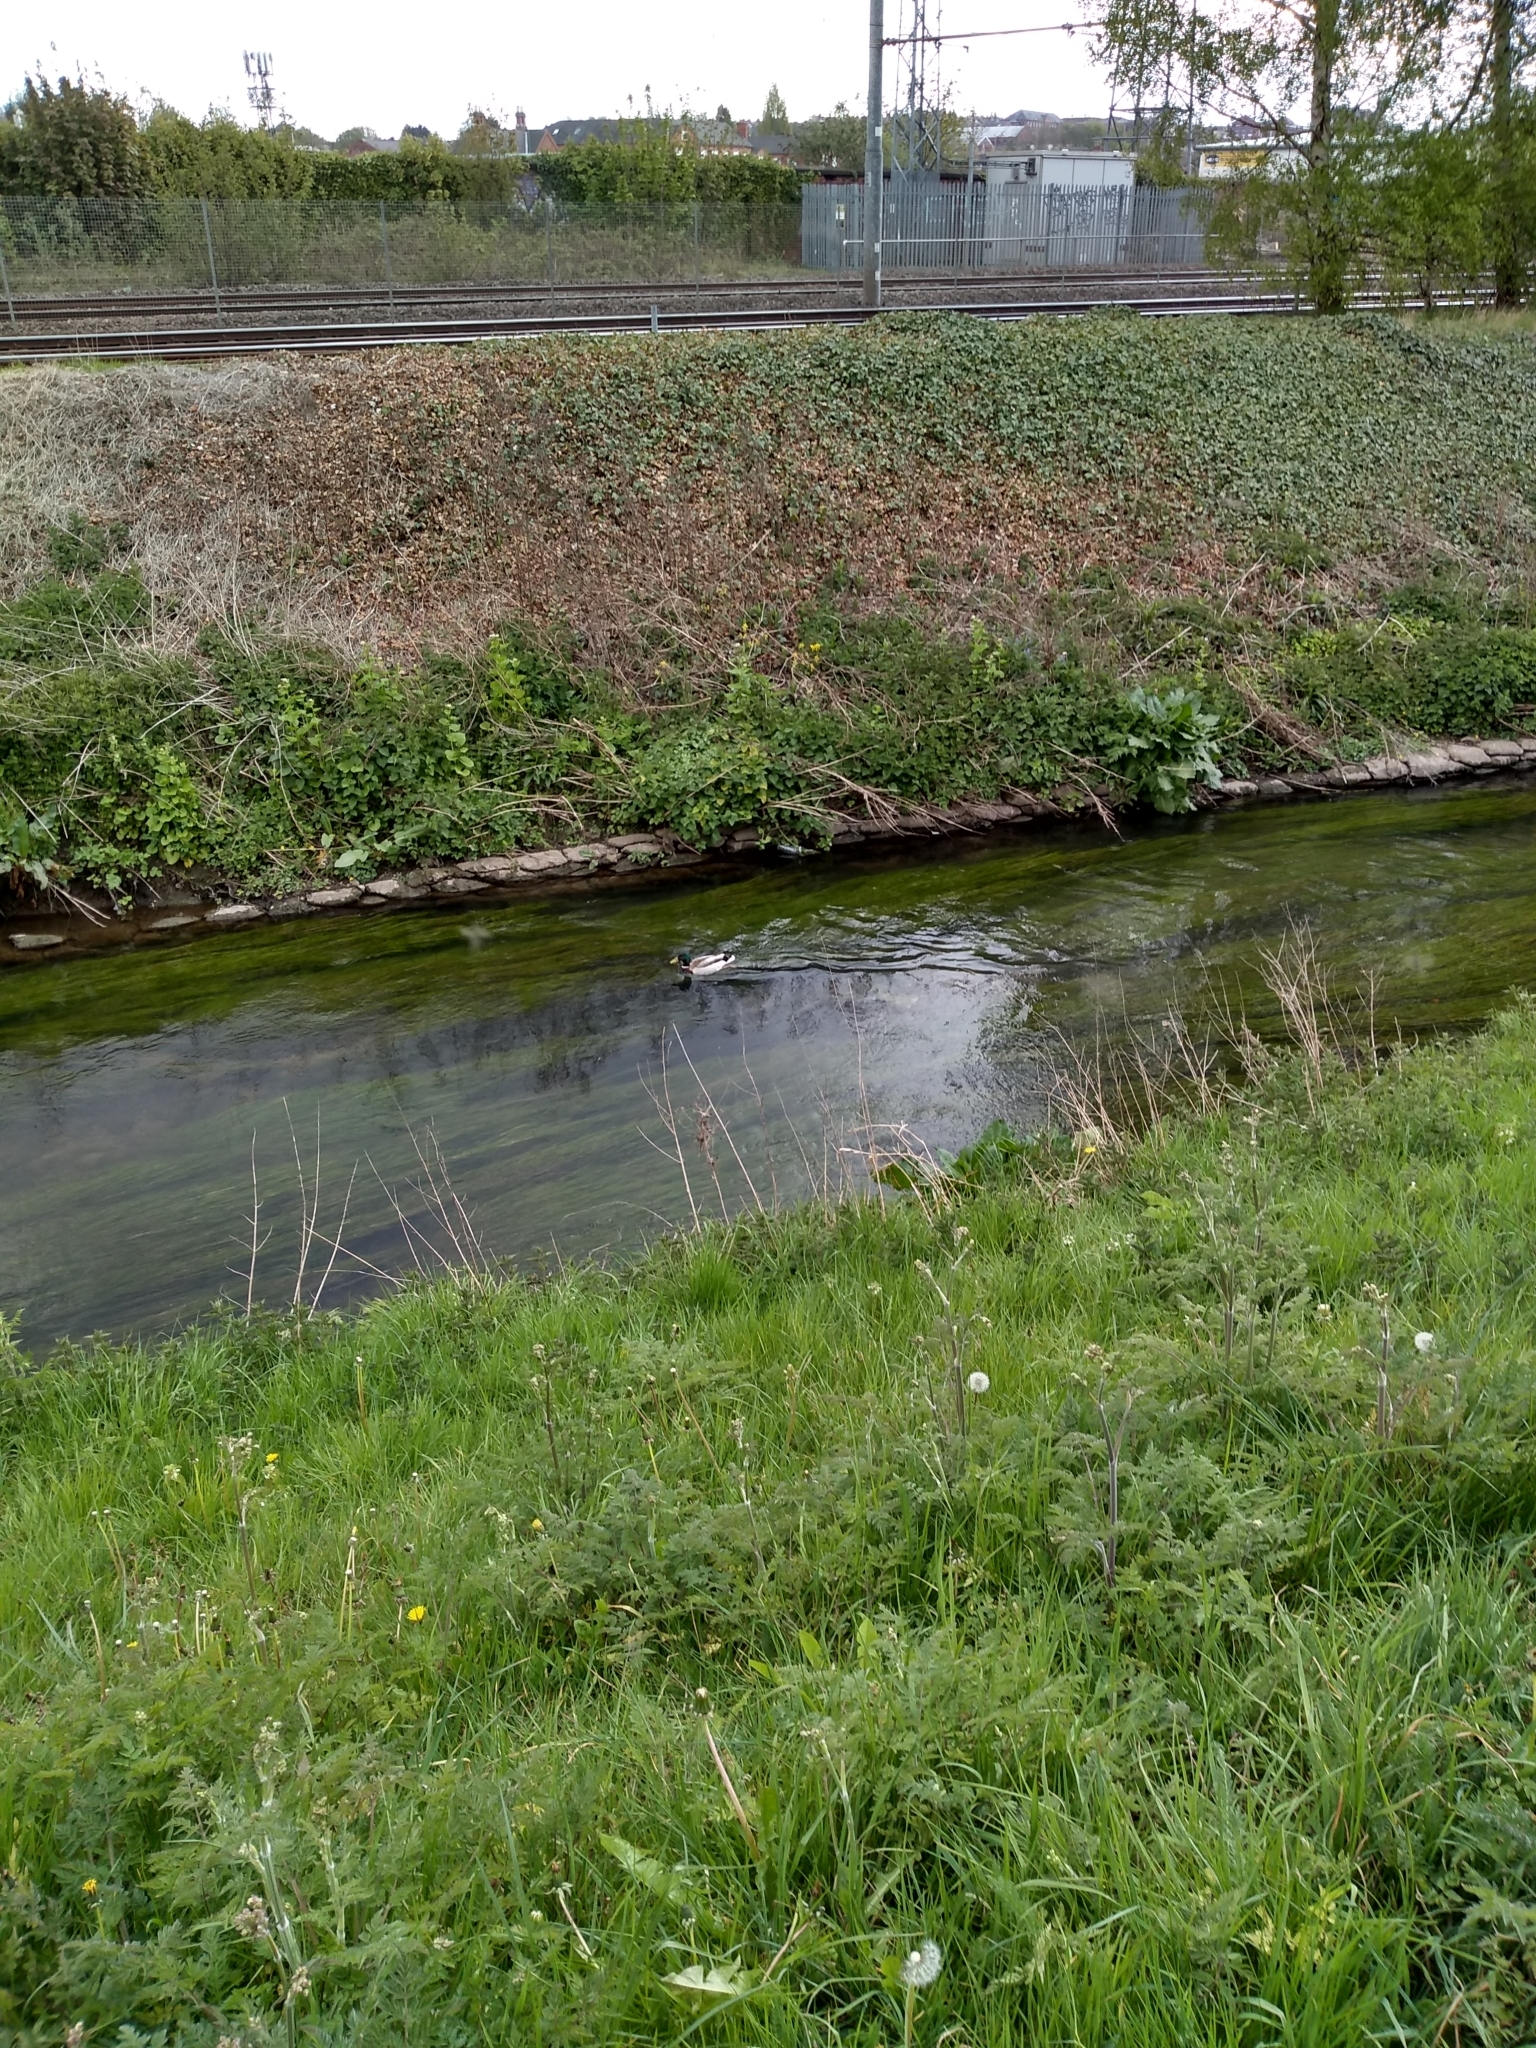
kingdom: Animalia
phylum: Chordata
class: Aves
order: Anseriformes
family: Anatidae
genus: Anas
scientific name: Anas platyrhynchos
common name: Mallard
